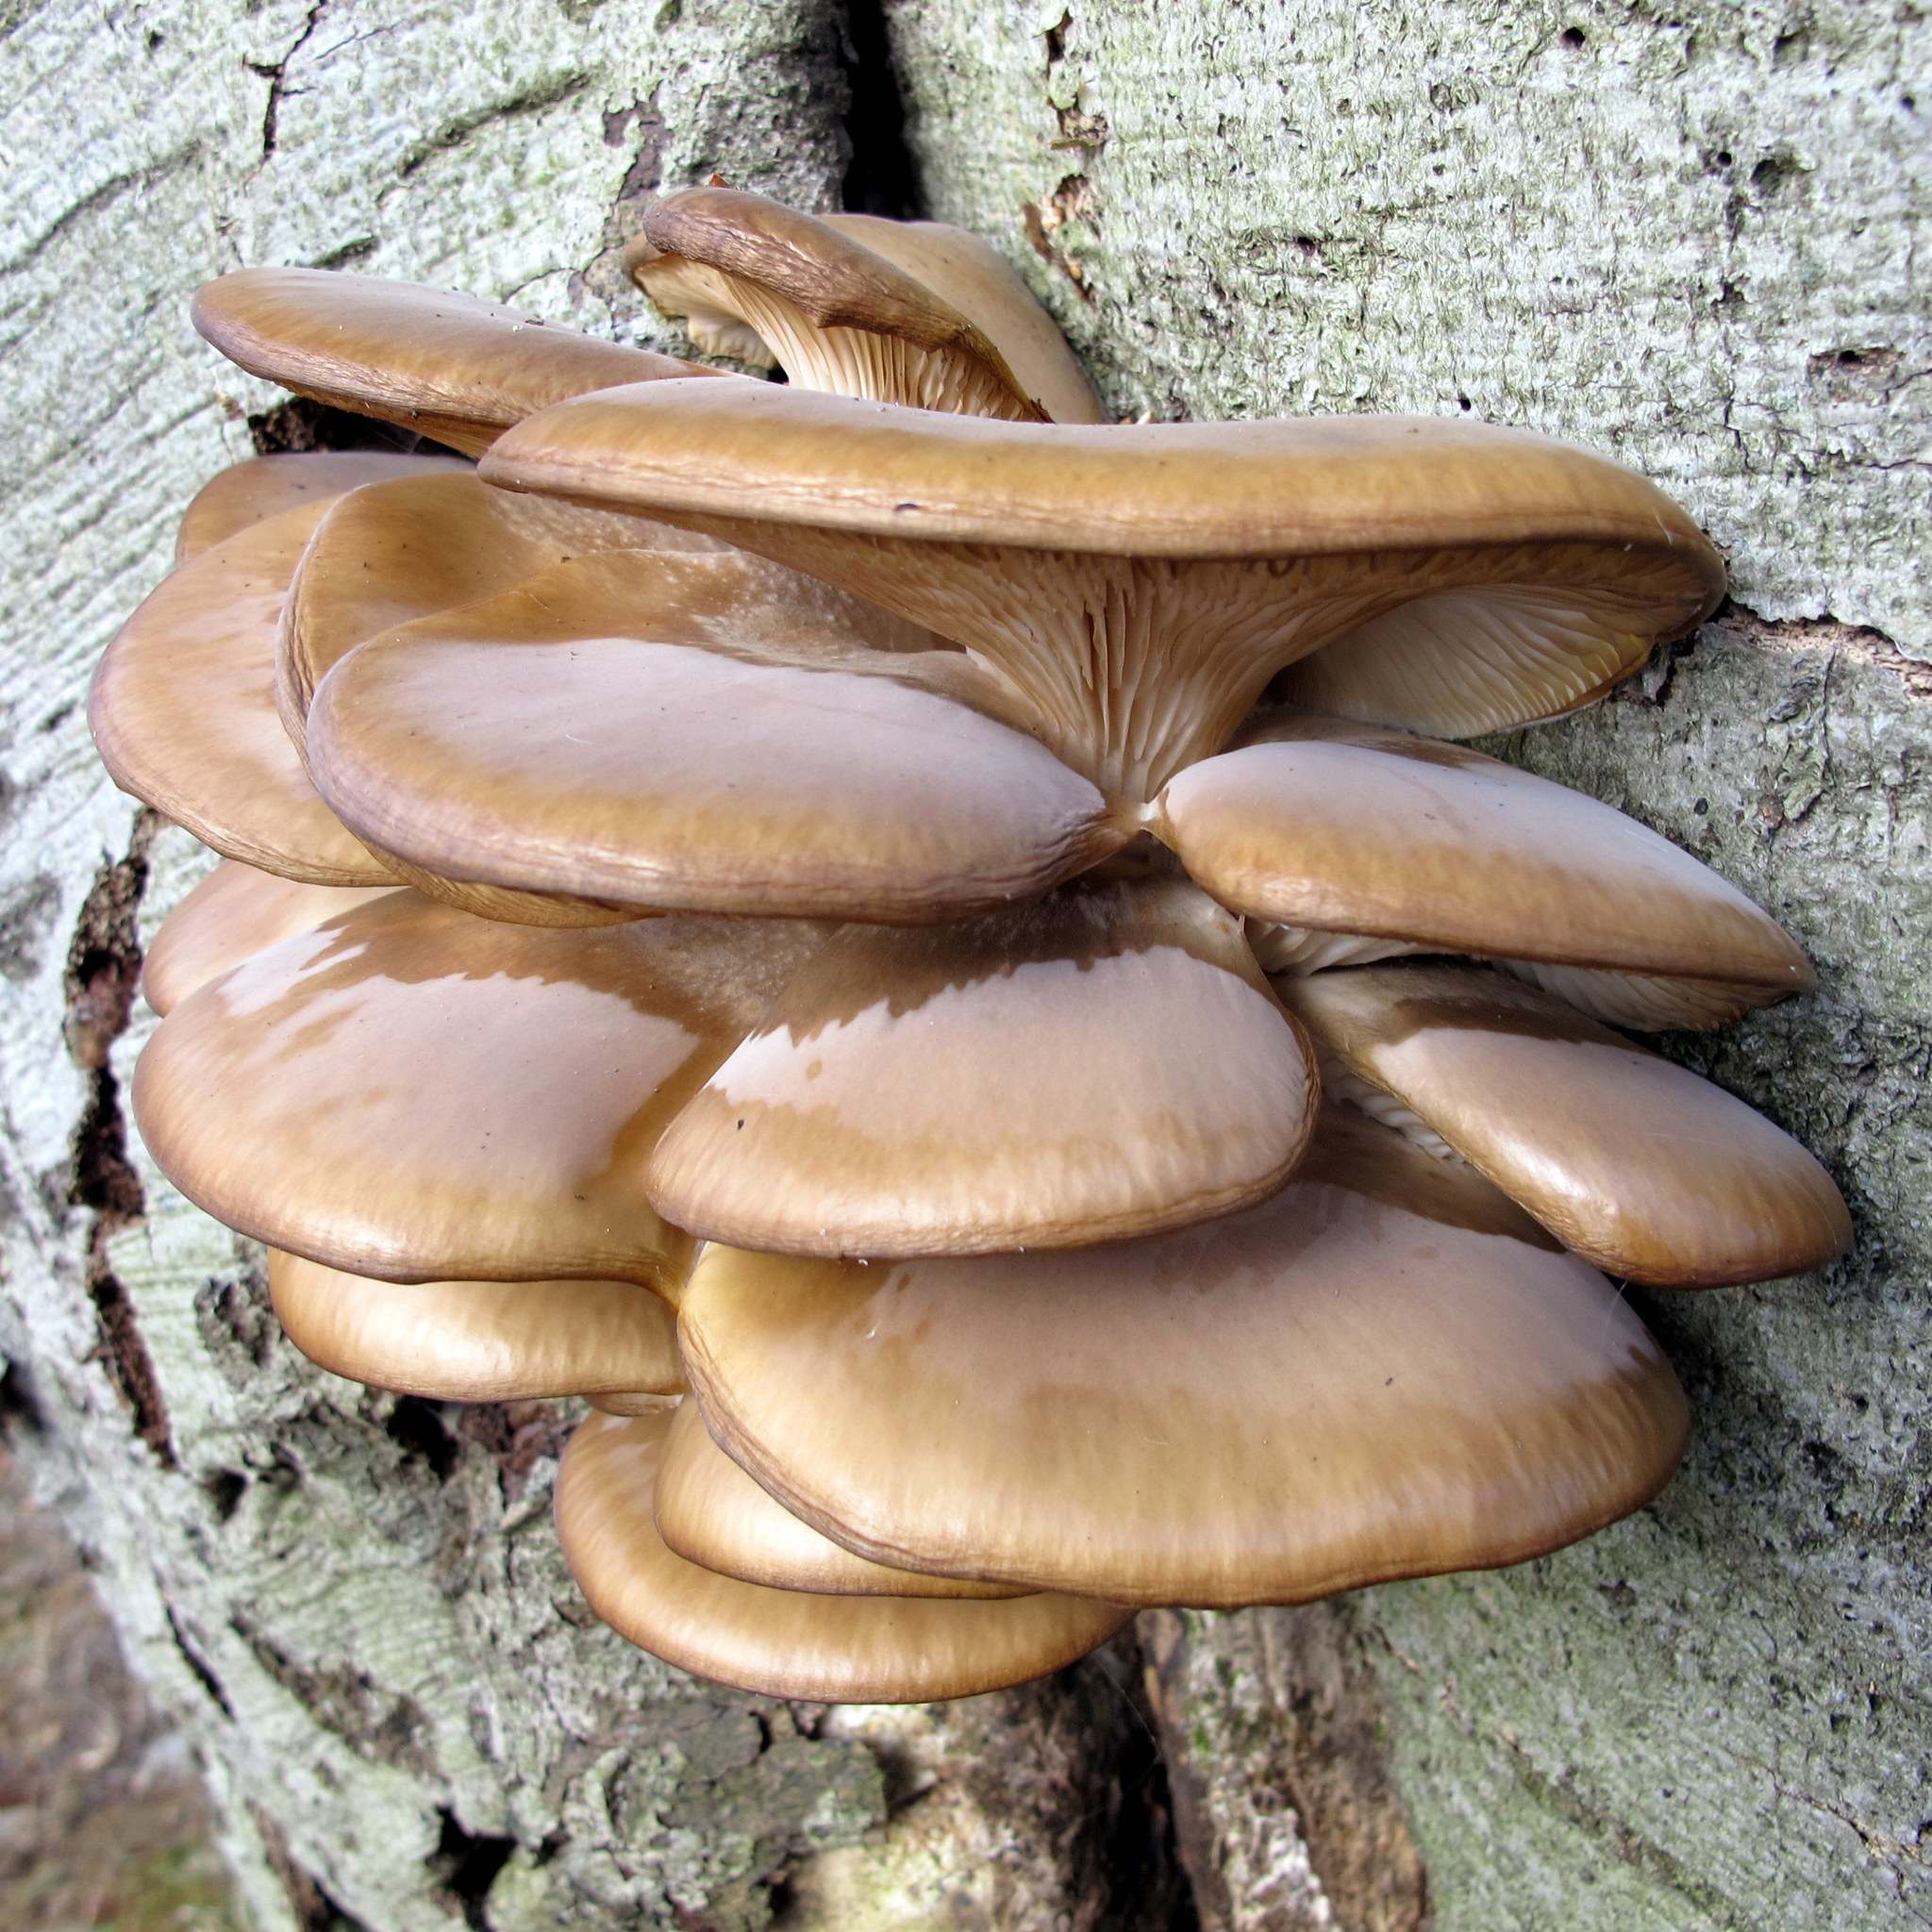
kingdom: Fungi
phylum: Basidiomycota
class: Agaricomycetes
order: Agaricales
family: Pleurotaceae
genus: Pleurotus
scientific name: Pleurotus ostreatus
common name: Oyster mushroom
